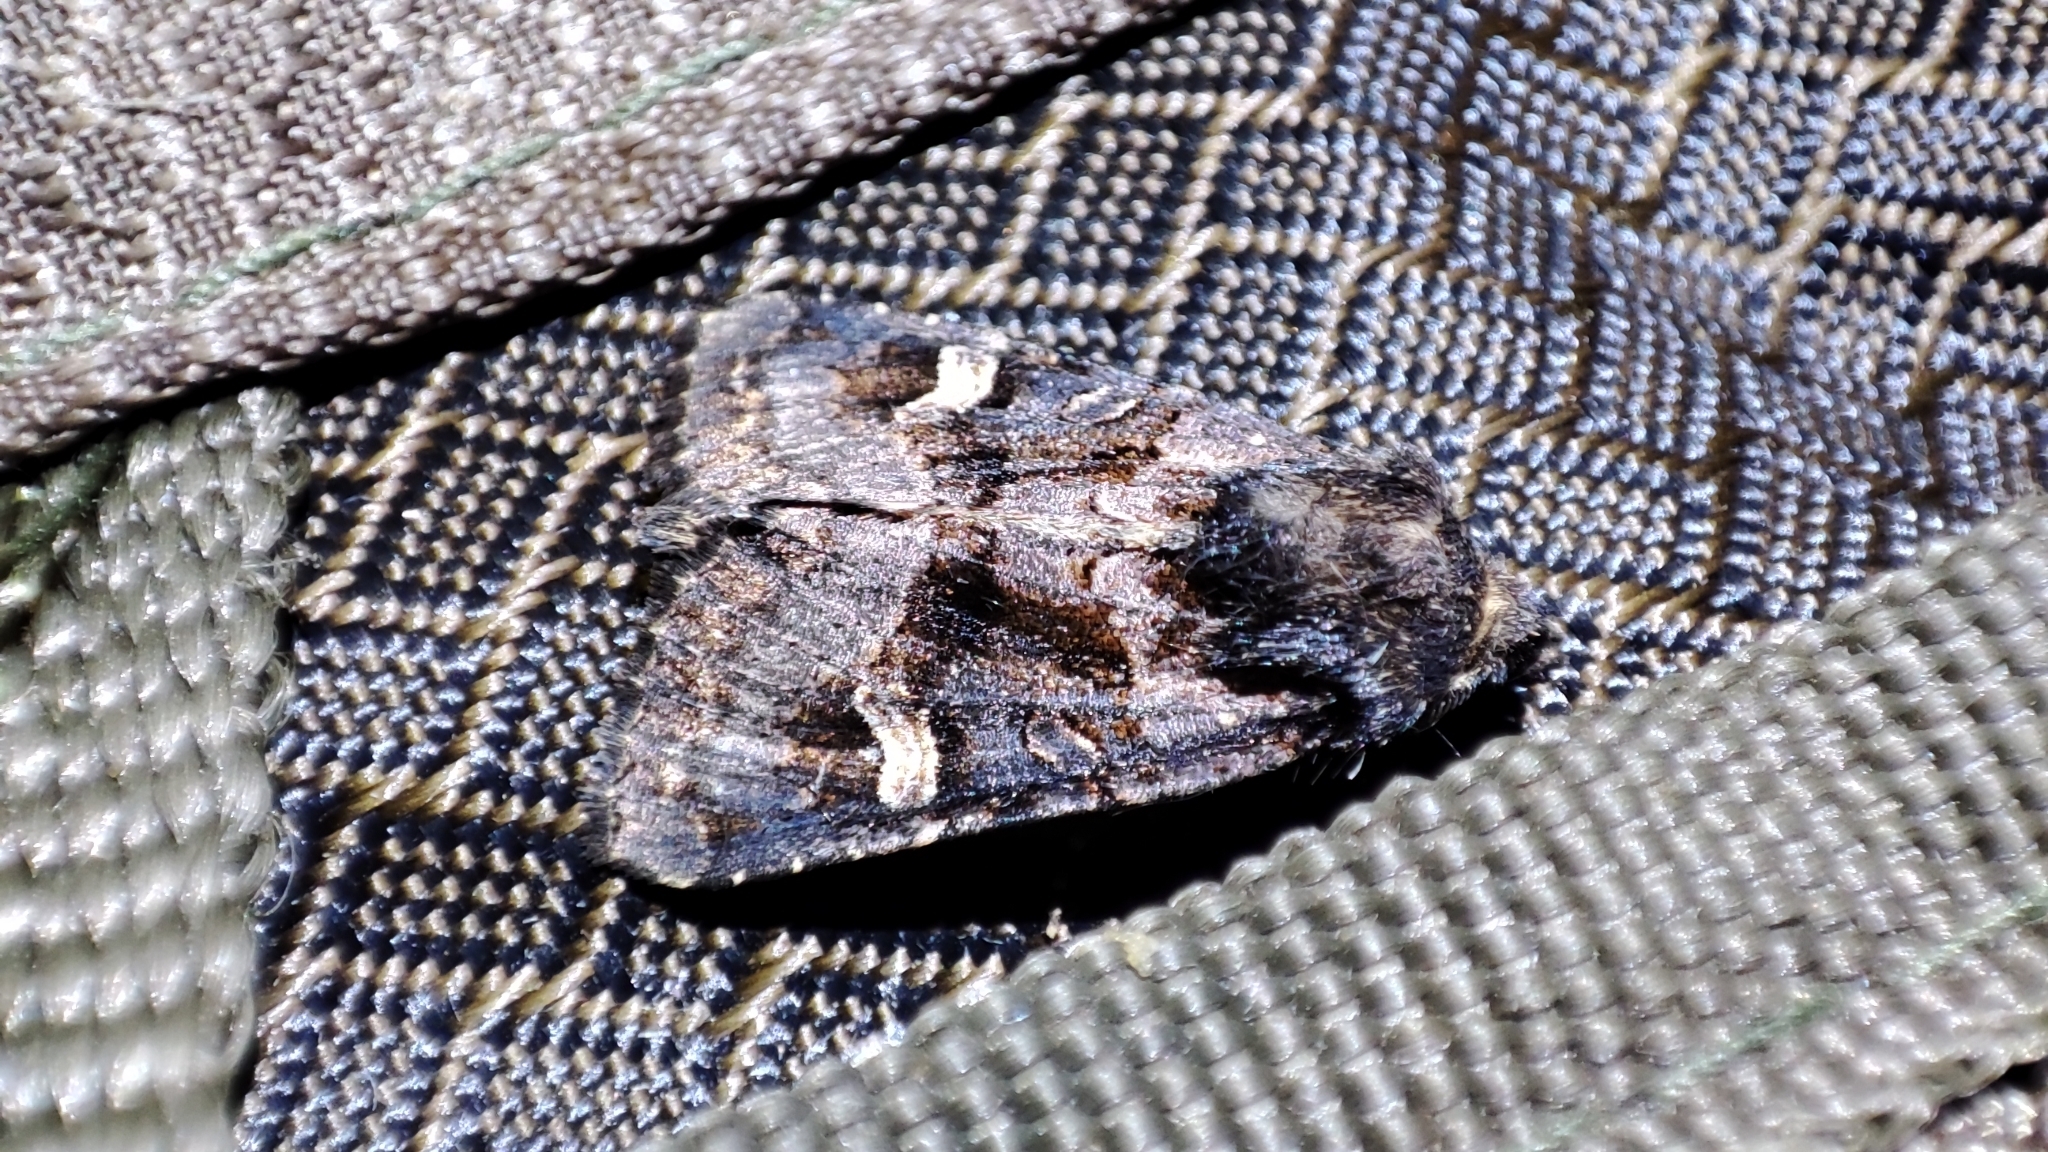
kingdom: Animalia
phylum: Arthropoda
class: Insecta
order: Lepidoptera
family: Noctuidae
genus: Nyssocnemis
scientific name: Nyssocnemis eversmanni
